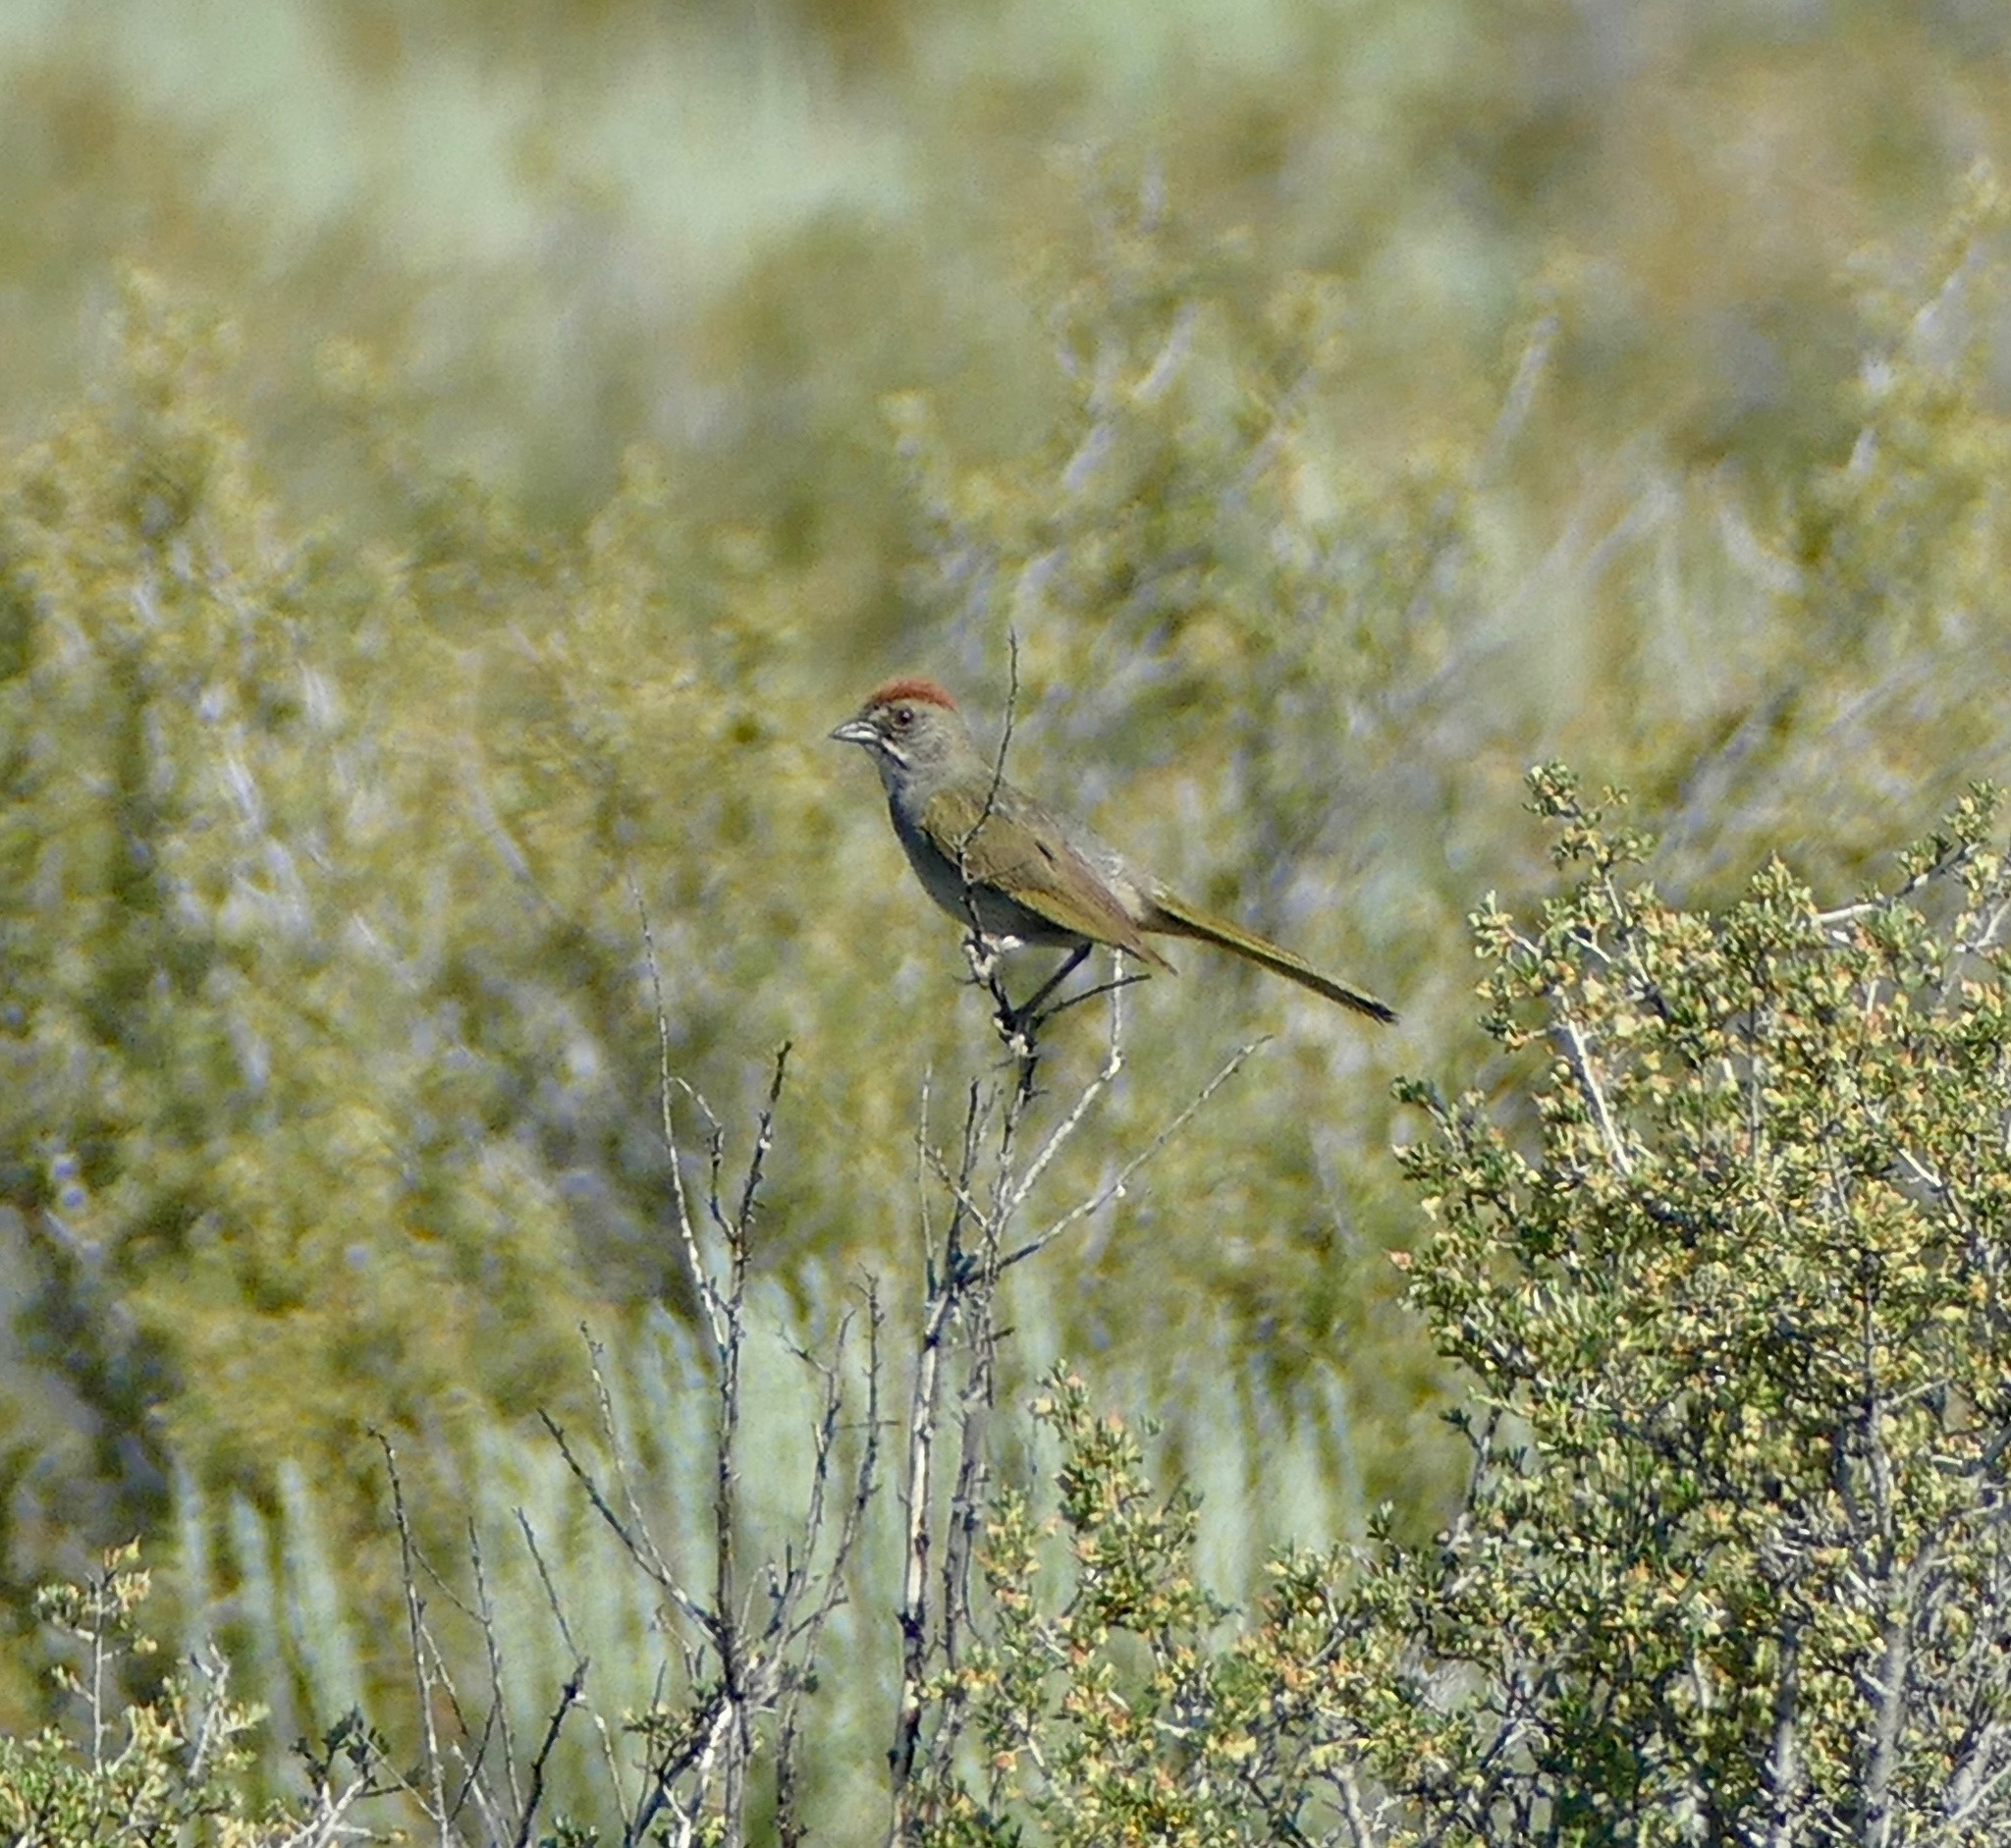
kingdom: Animalia
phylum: Chordata
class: Aves
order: Passeriformes
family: Passerellidae
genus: Pipilo
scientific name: Pipilo chlorurus
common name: Green-tailed towhee
